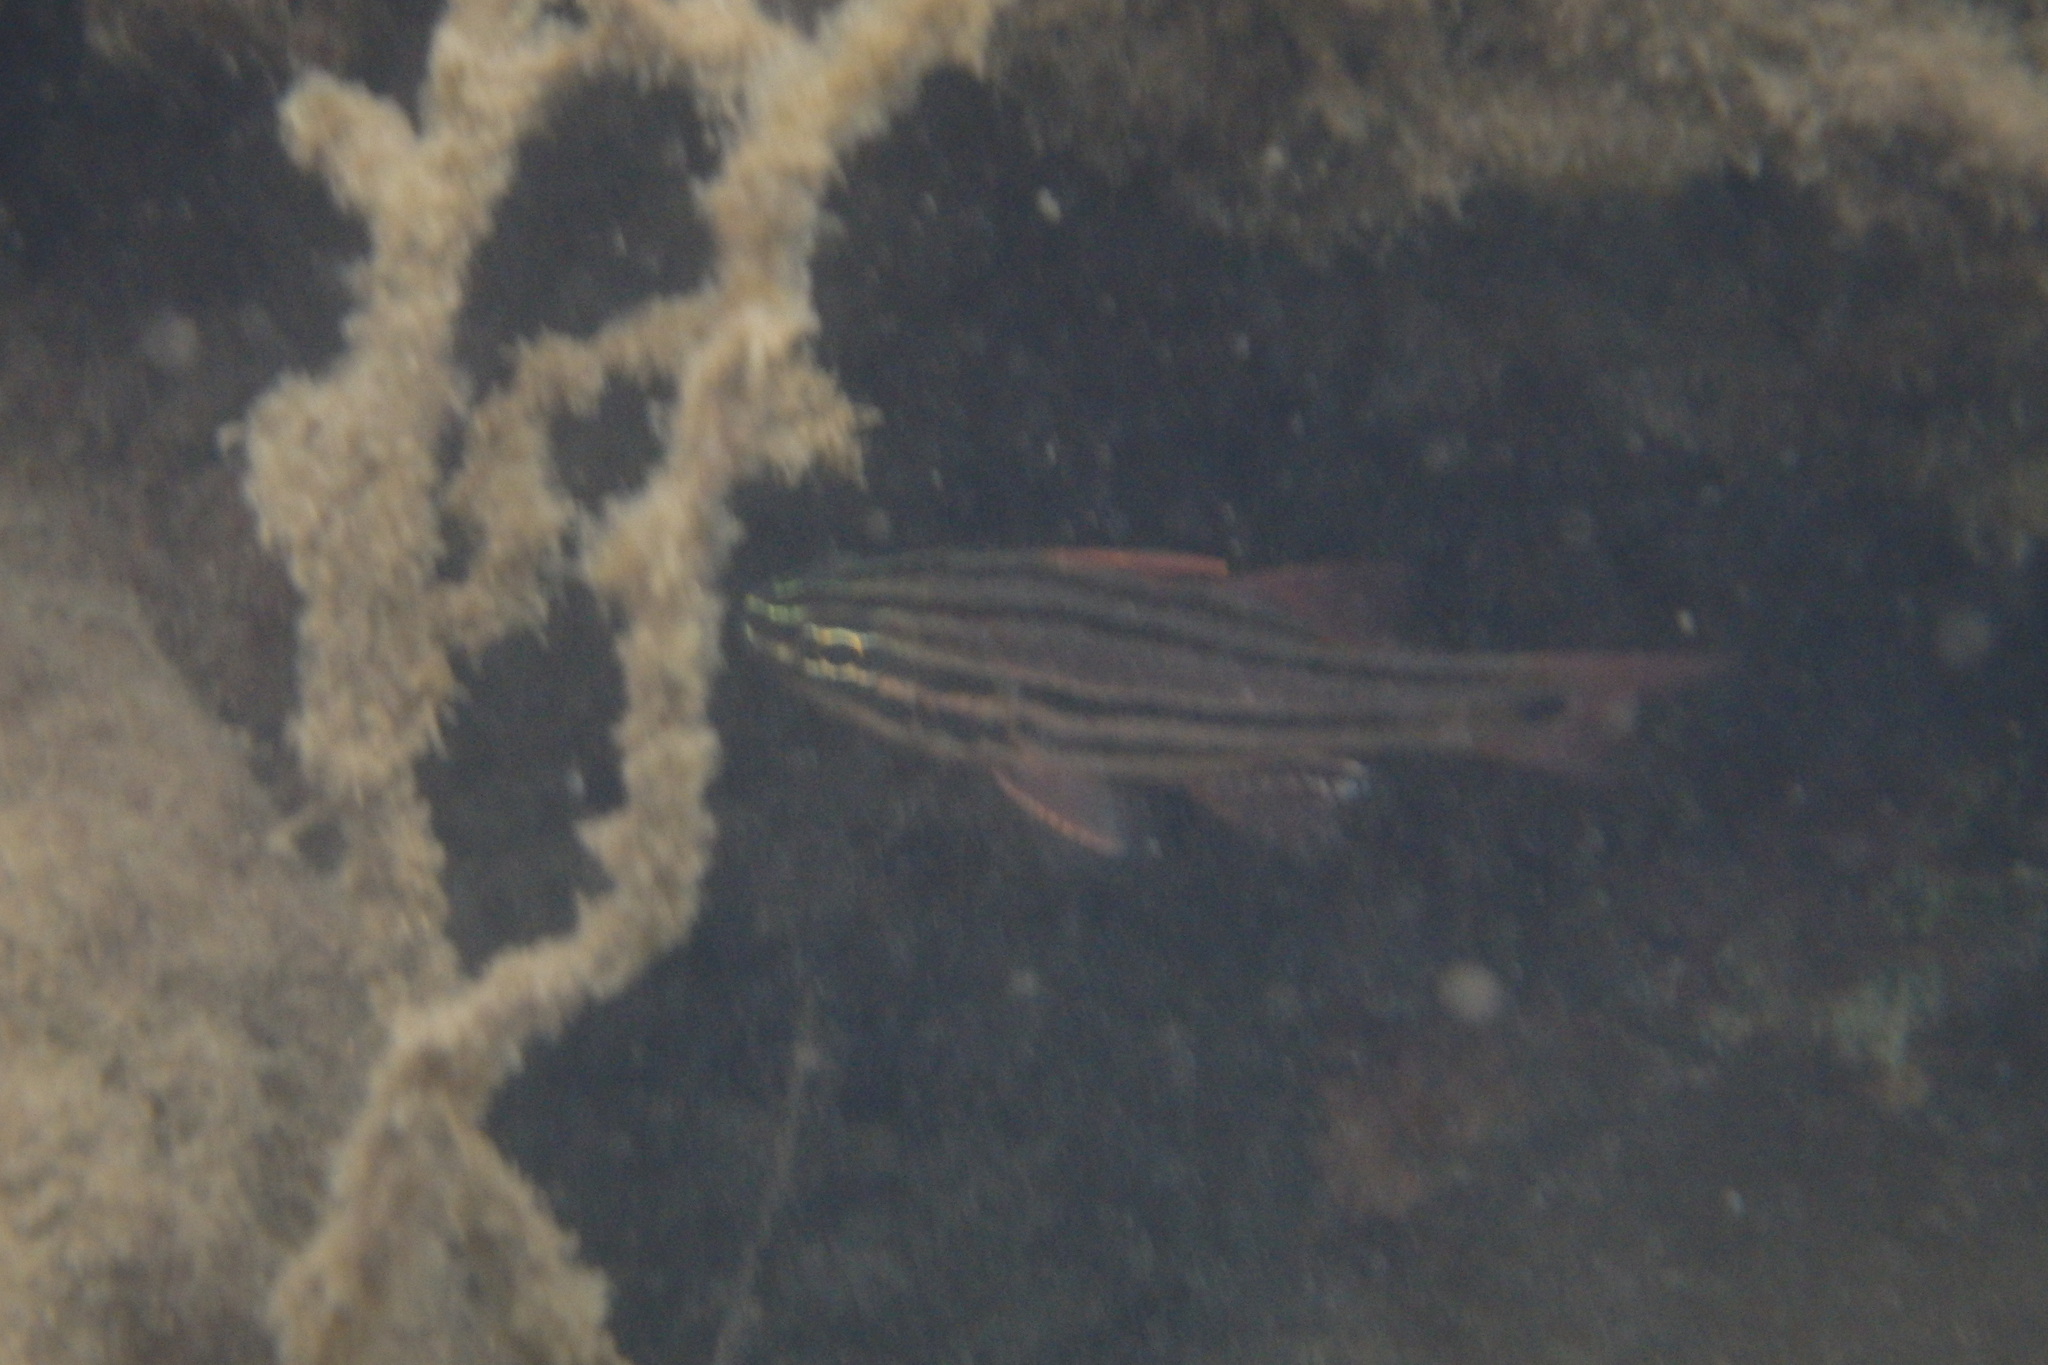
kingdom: Animalia
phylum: Chordata
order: Perciformes
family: Apogonidae
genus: Ostorhinchus
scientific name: Ostorhinchus limenus
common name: Four-banded soldierfish
